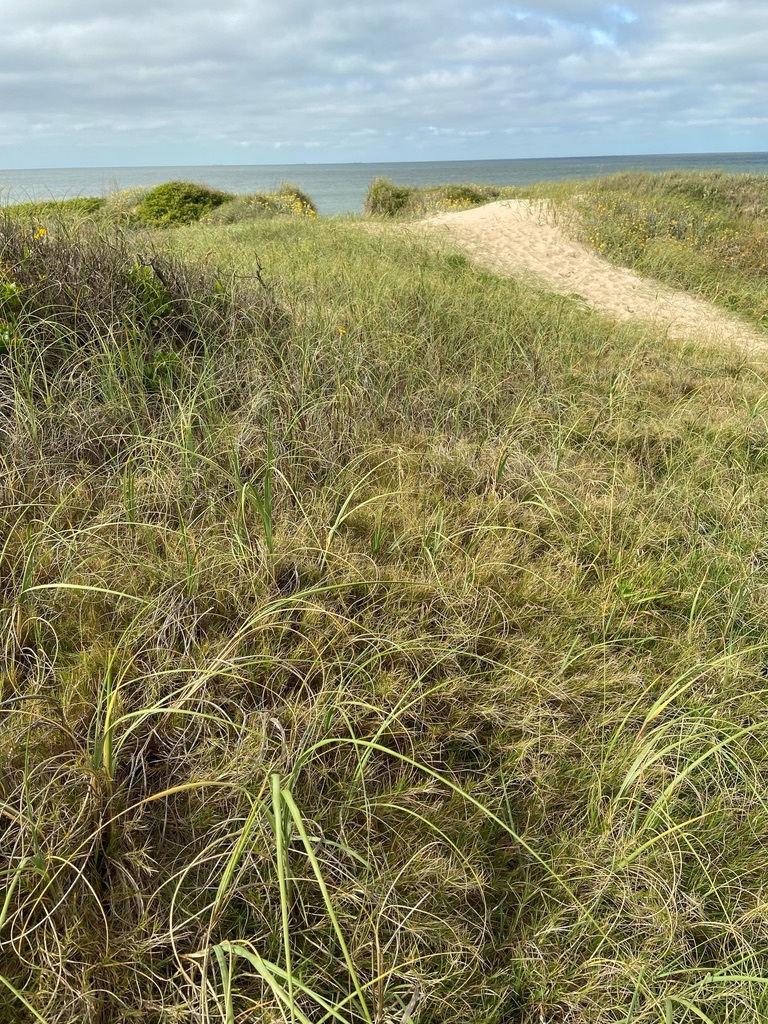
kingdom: Plantae
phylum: Tracheophyta
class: Liliopsida
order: Poales
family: Poaceae
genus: Panicum
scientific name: Panicum racemosum
